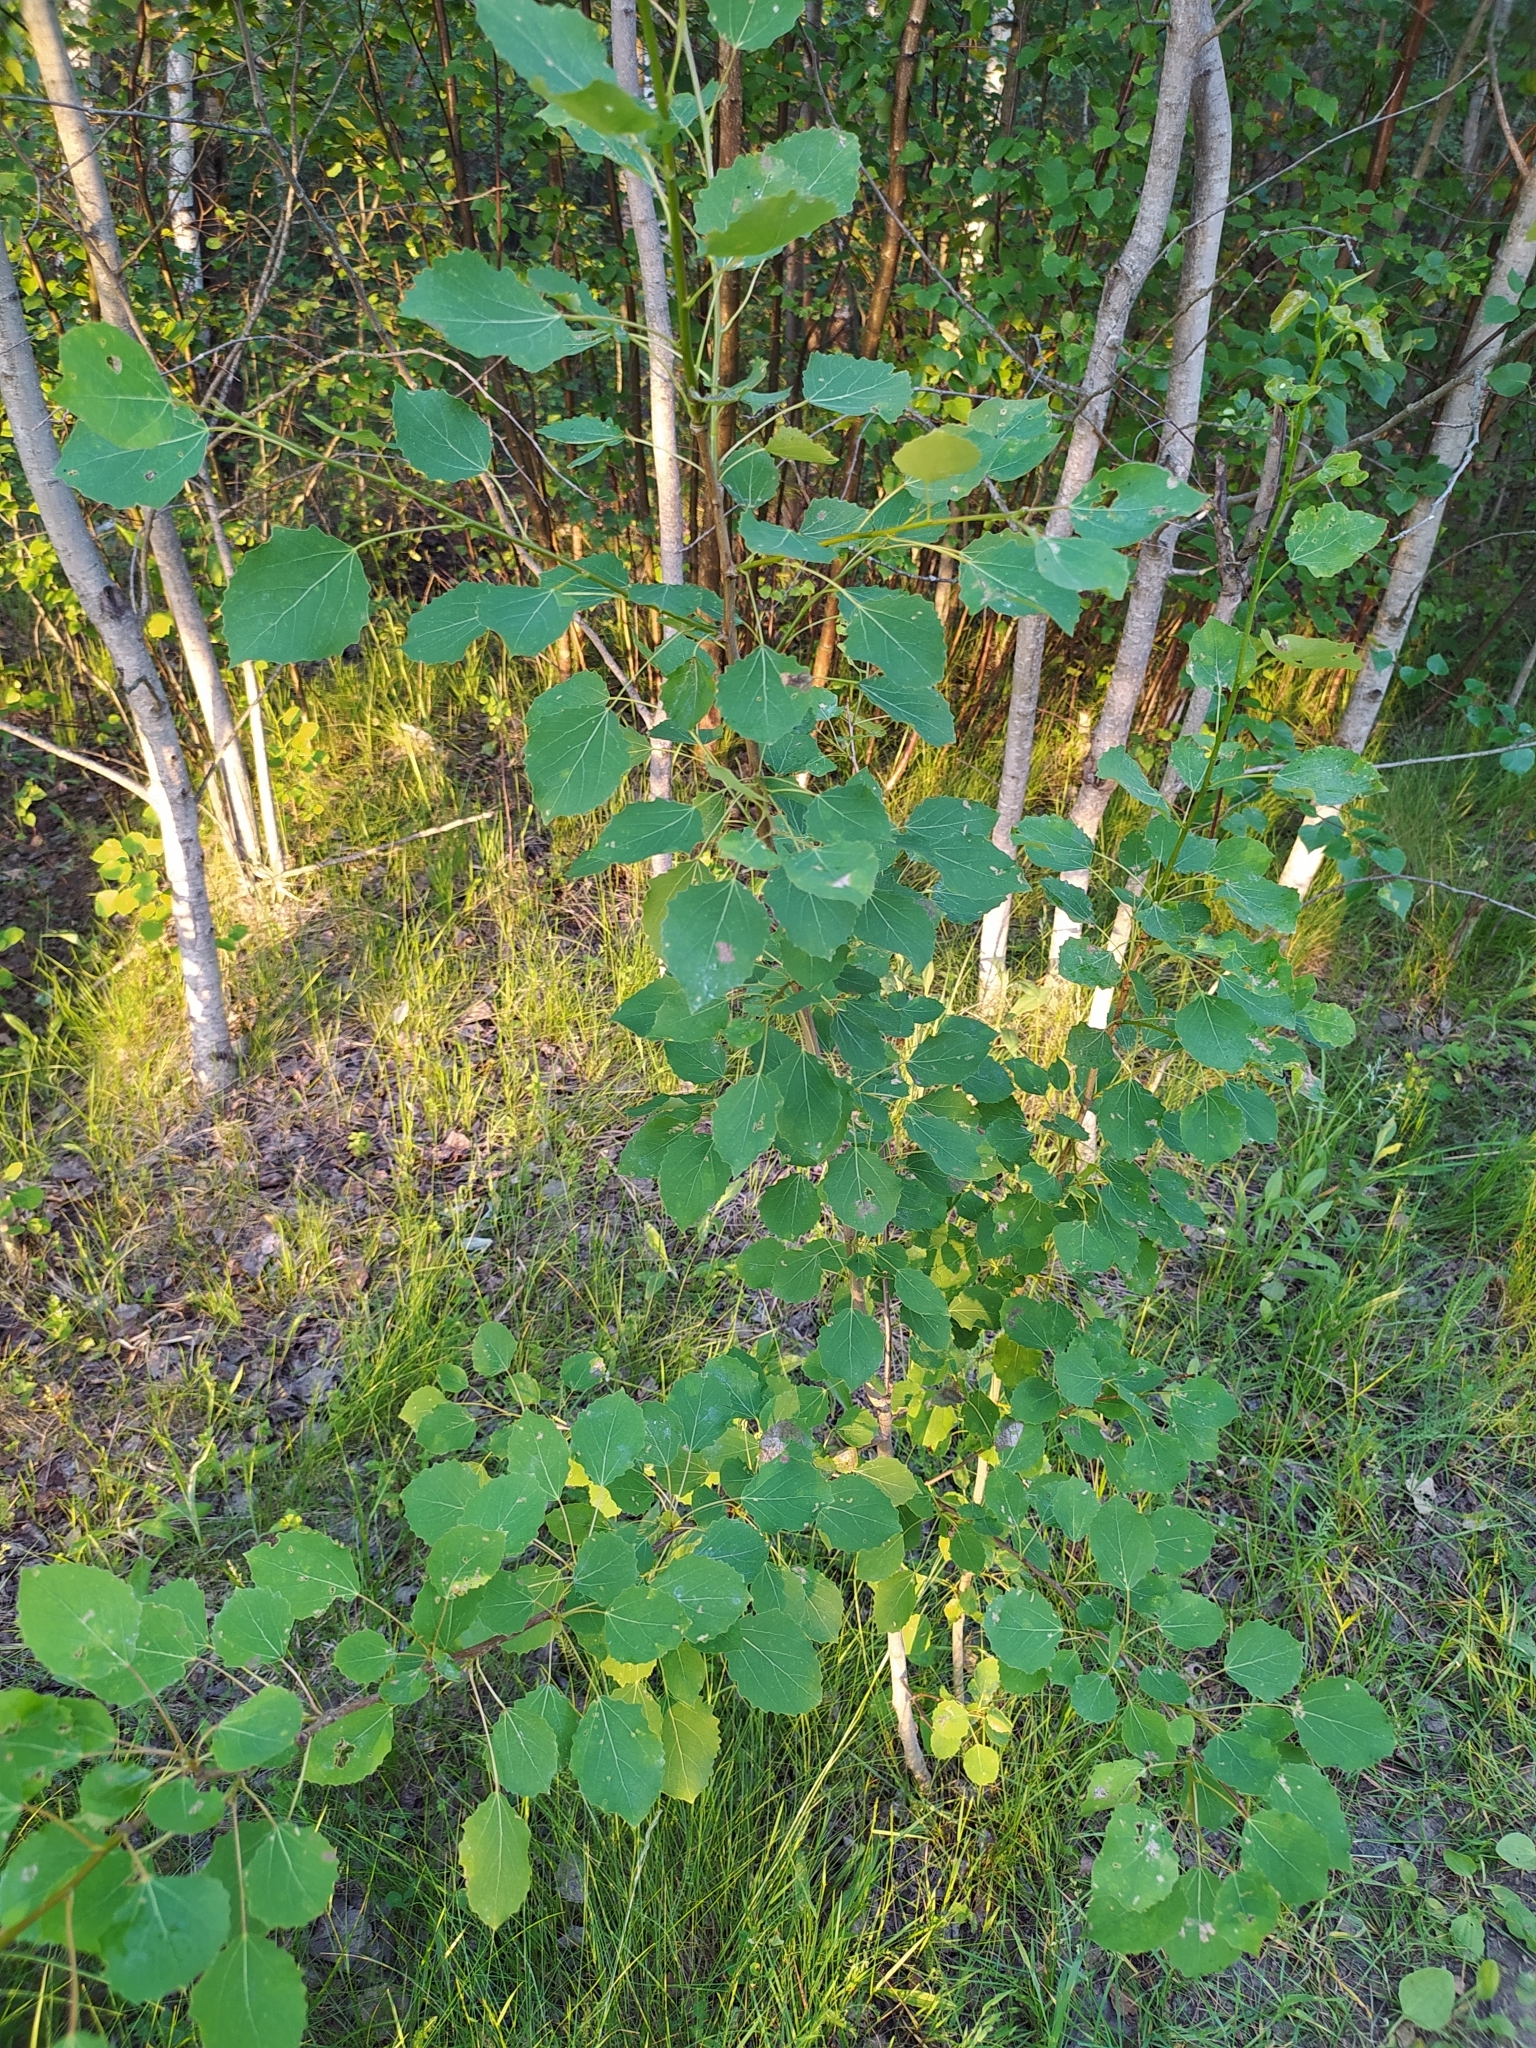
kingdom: Plantae
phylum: Tracheophyta
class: Magnoliopsida
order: Malpighiales
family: Salicaceae
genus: Populus
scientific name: Populus tremula
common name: European aspen
